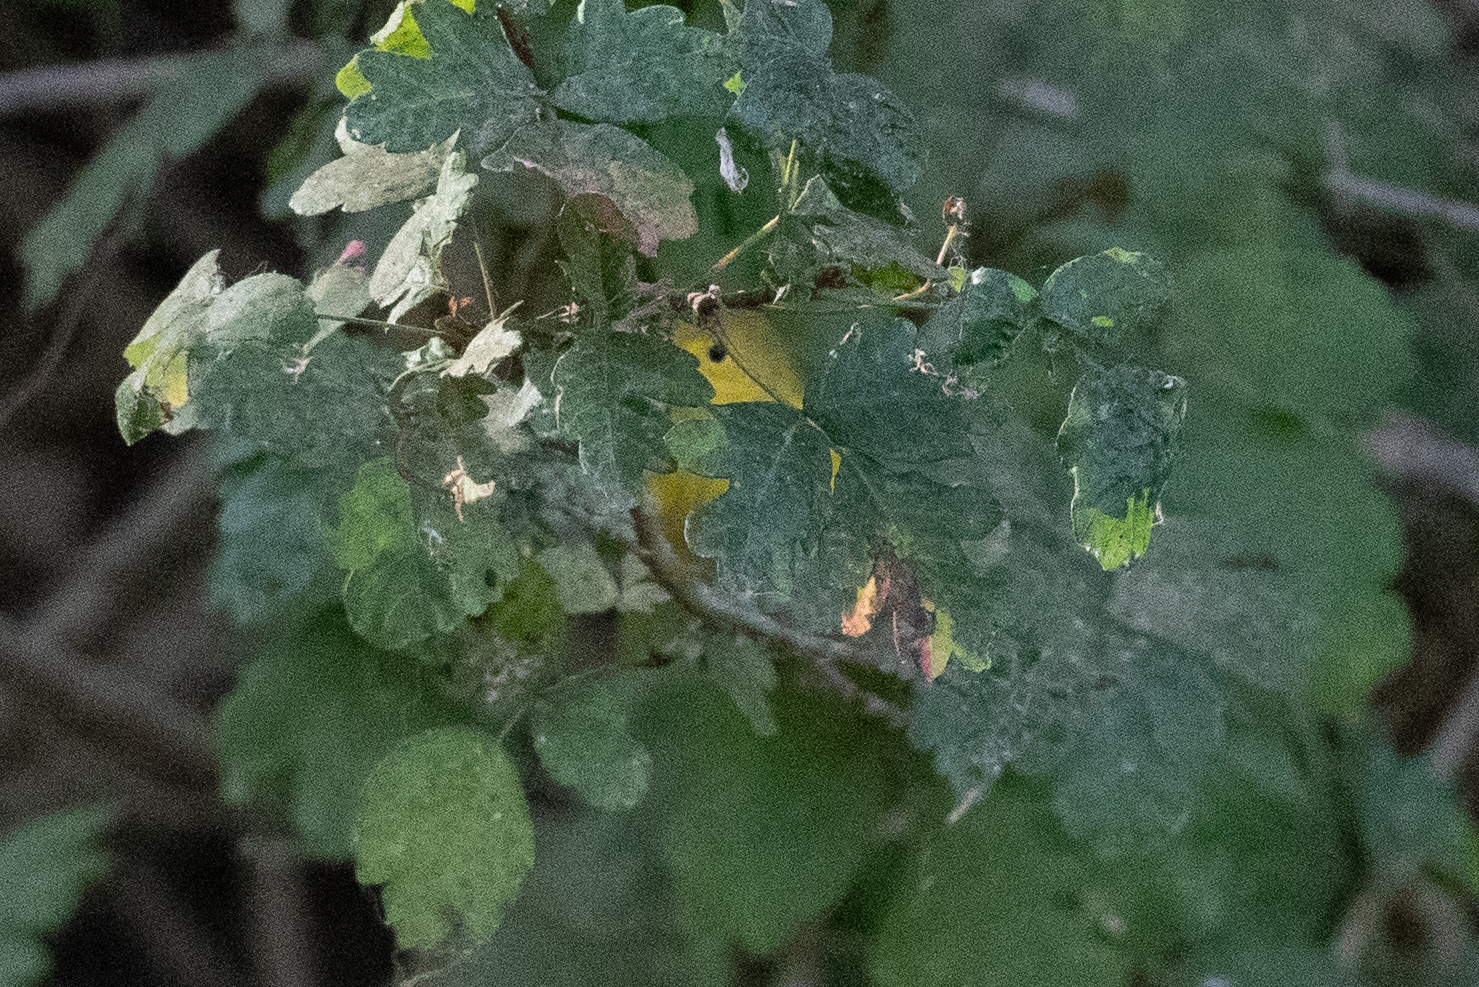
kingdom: Animalia
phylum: Chordata
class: Aves
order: Passeriformes
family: Parulidae
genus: Setophaga
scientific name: Setophaga petechia
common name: Yellow warbler
